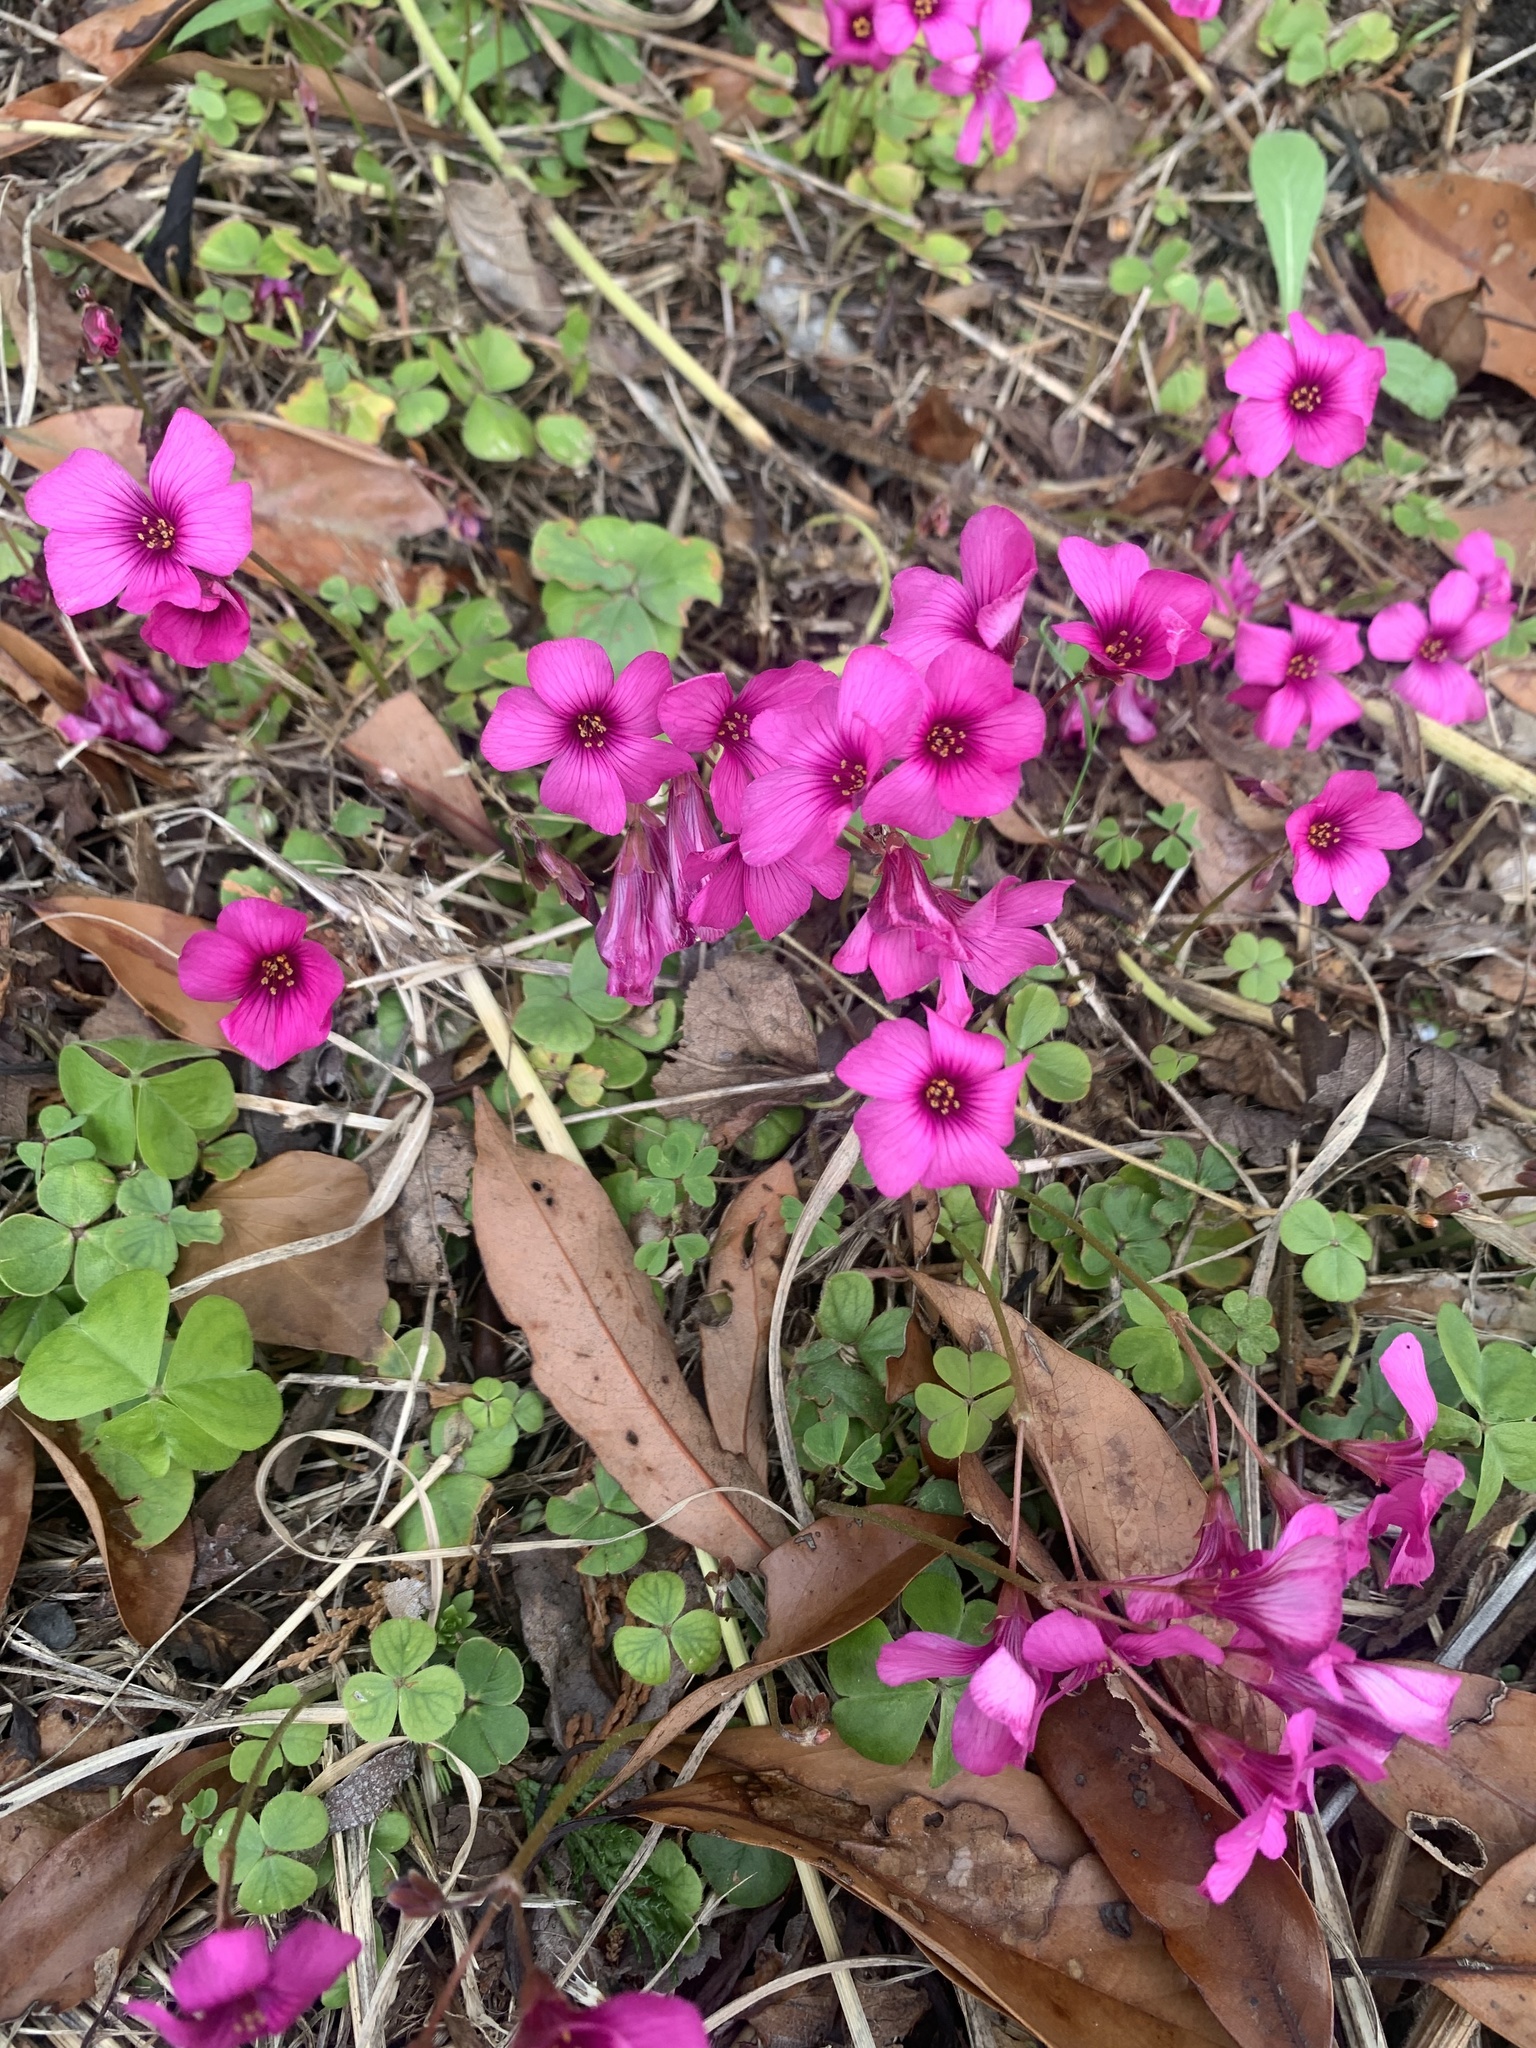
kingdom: Plantae
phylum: Tracheophyta
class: Magnoliopsida
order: Oxalidales
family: Oxalidaceae
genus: Oxalis
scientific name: Oxalis brasiliensis
